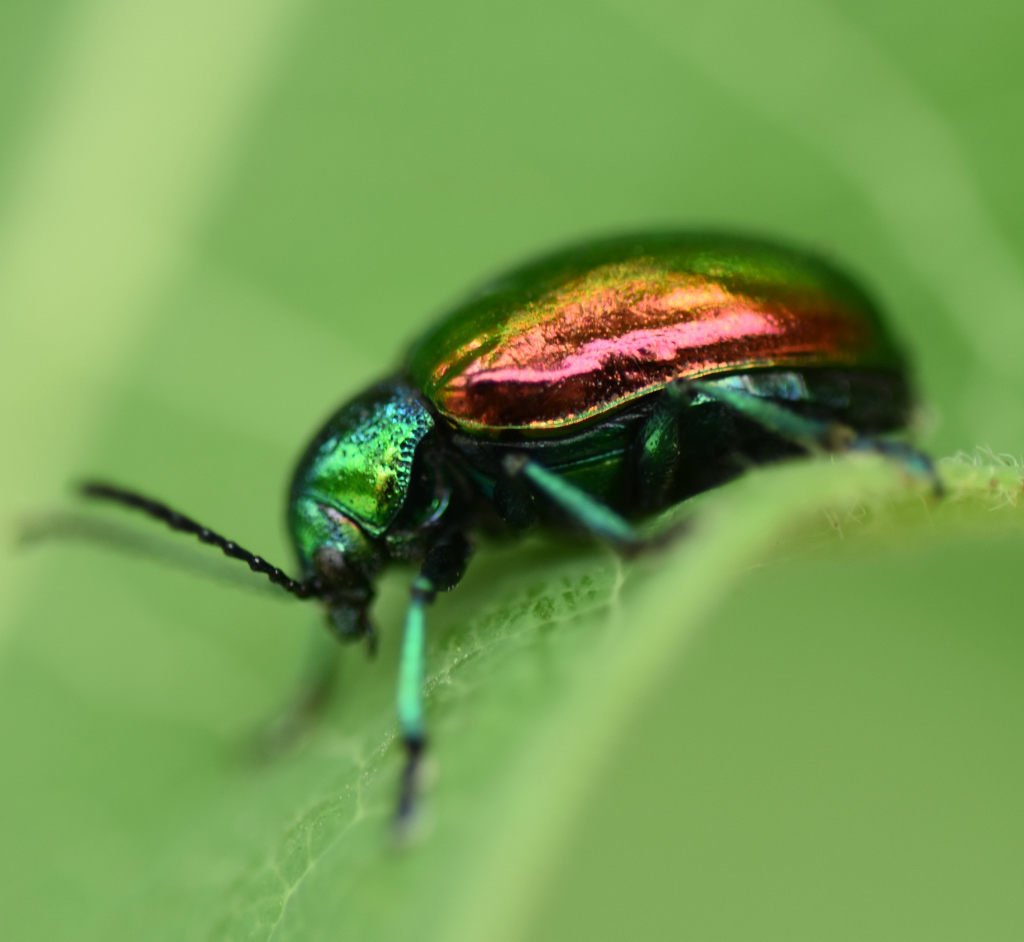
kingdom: Animalia
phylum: Arthropoda
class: Insecta
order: Coleoptera
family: Chrysomelidae
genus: Chrysochus
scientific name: Chrysochus auratus
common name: Dogbane leaf beetle
